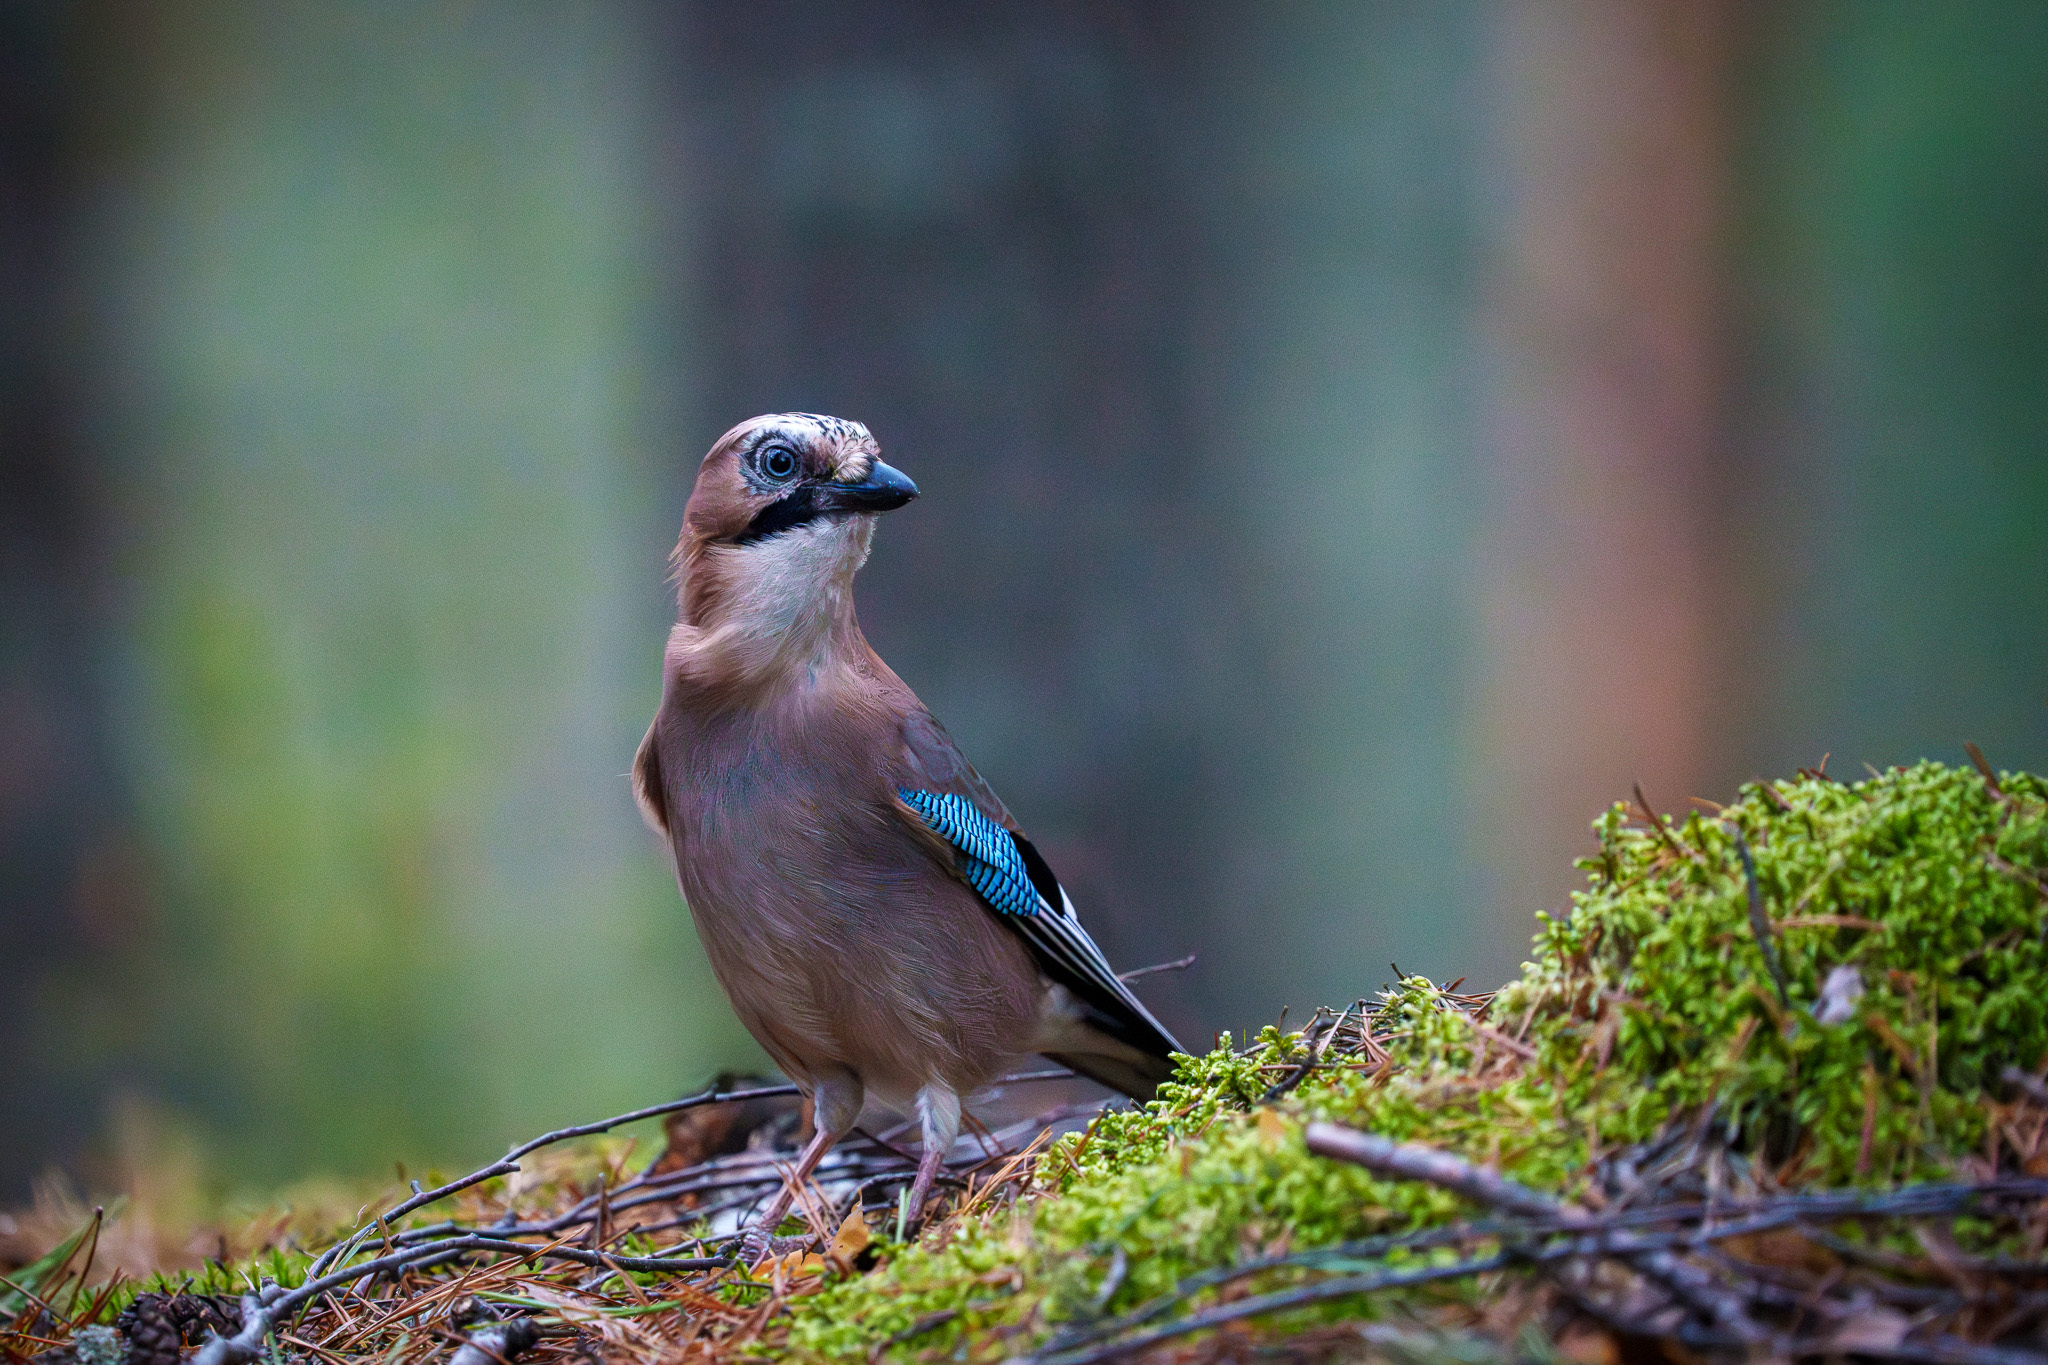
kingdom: Animalia
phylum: Chordata
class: Aves
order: Passeriformes
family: Corvidae
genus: Garrulus
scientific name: Garrulus glandarius
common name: Eurasian jay
